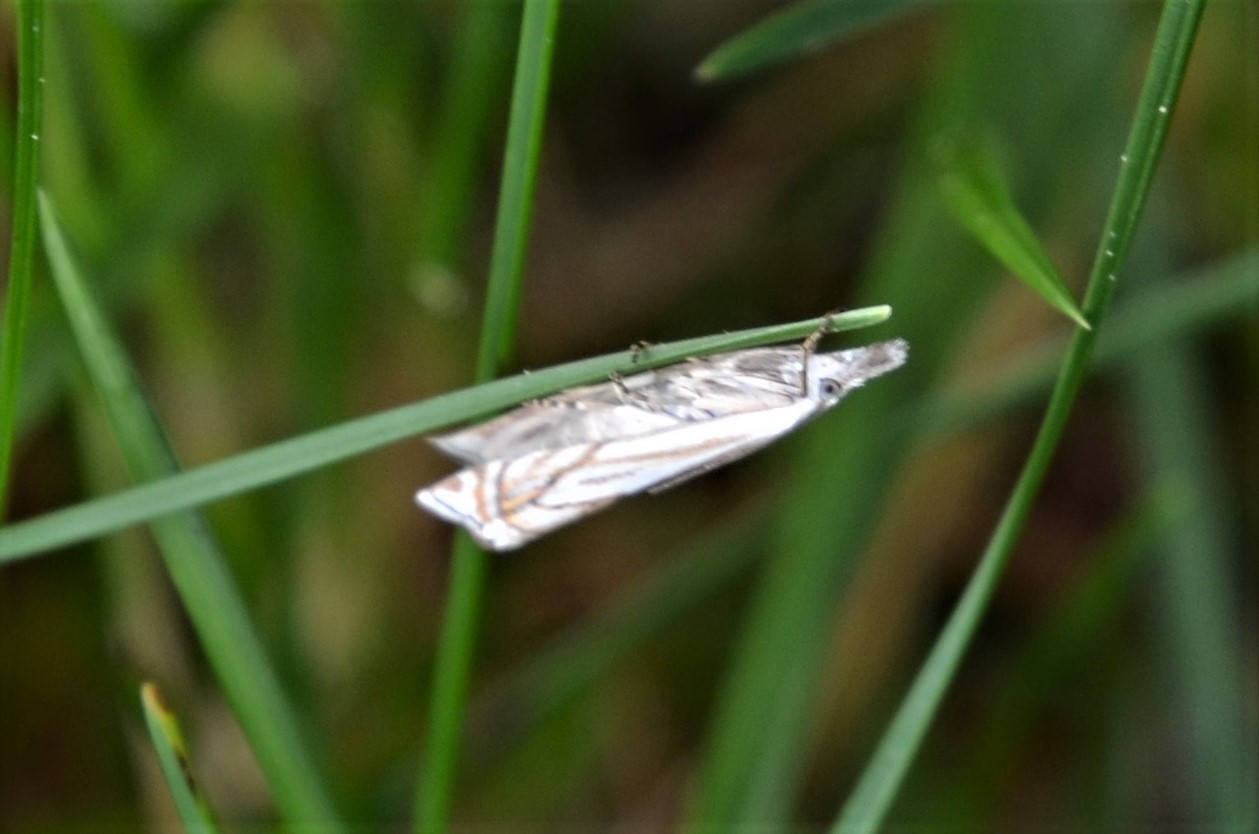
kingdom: Animalia
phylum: Arthropoda
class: Insecta
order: Lepidoptera
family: Crambidae
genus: Crambus
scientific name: Crambus nemorella
